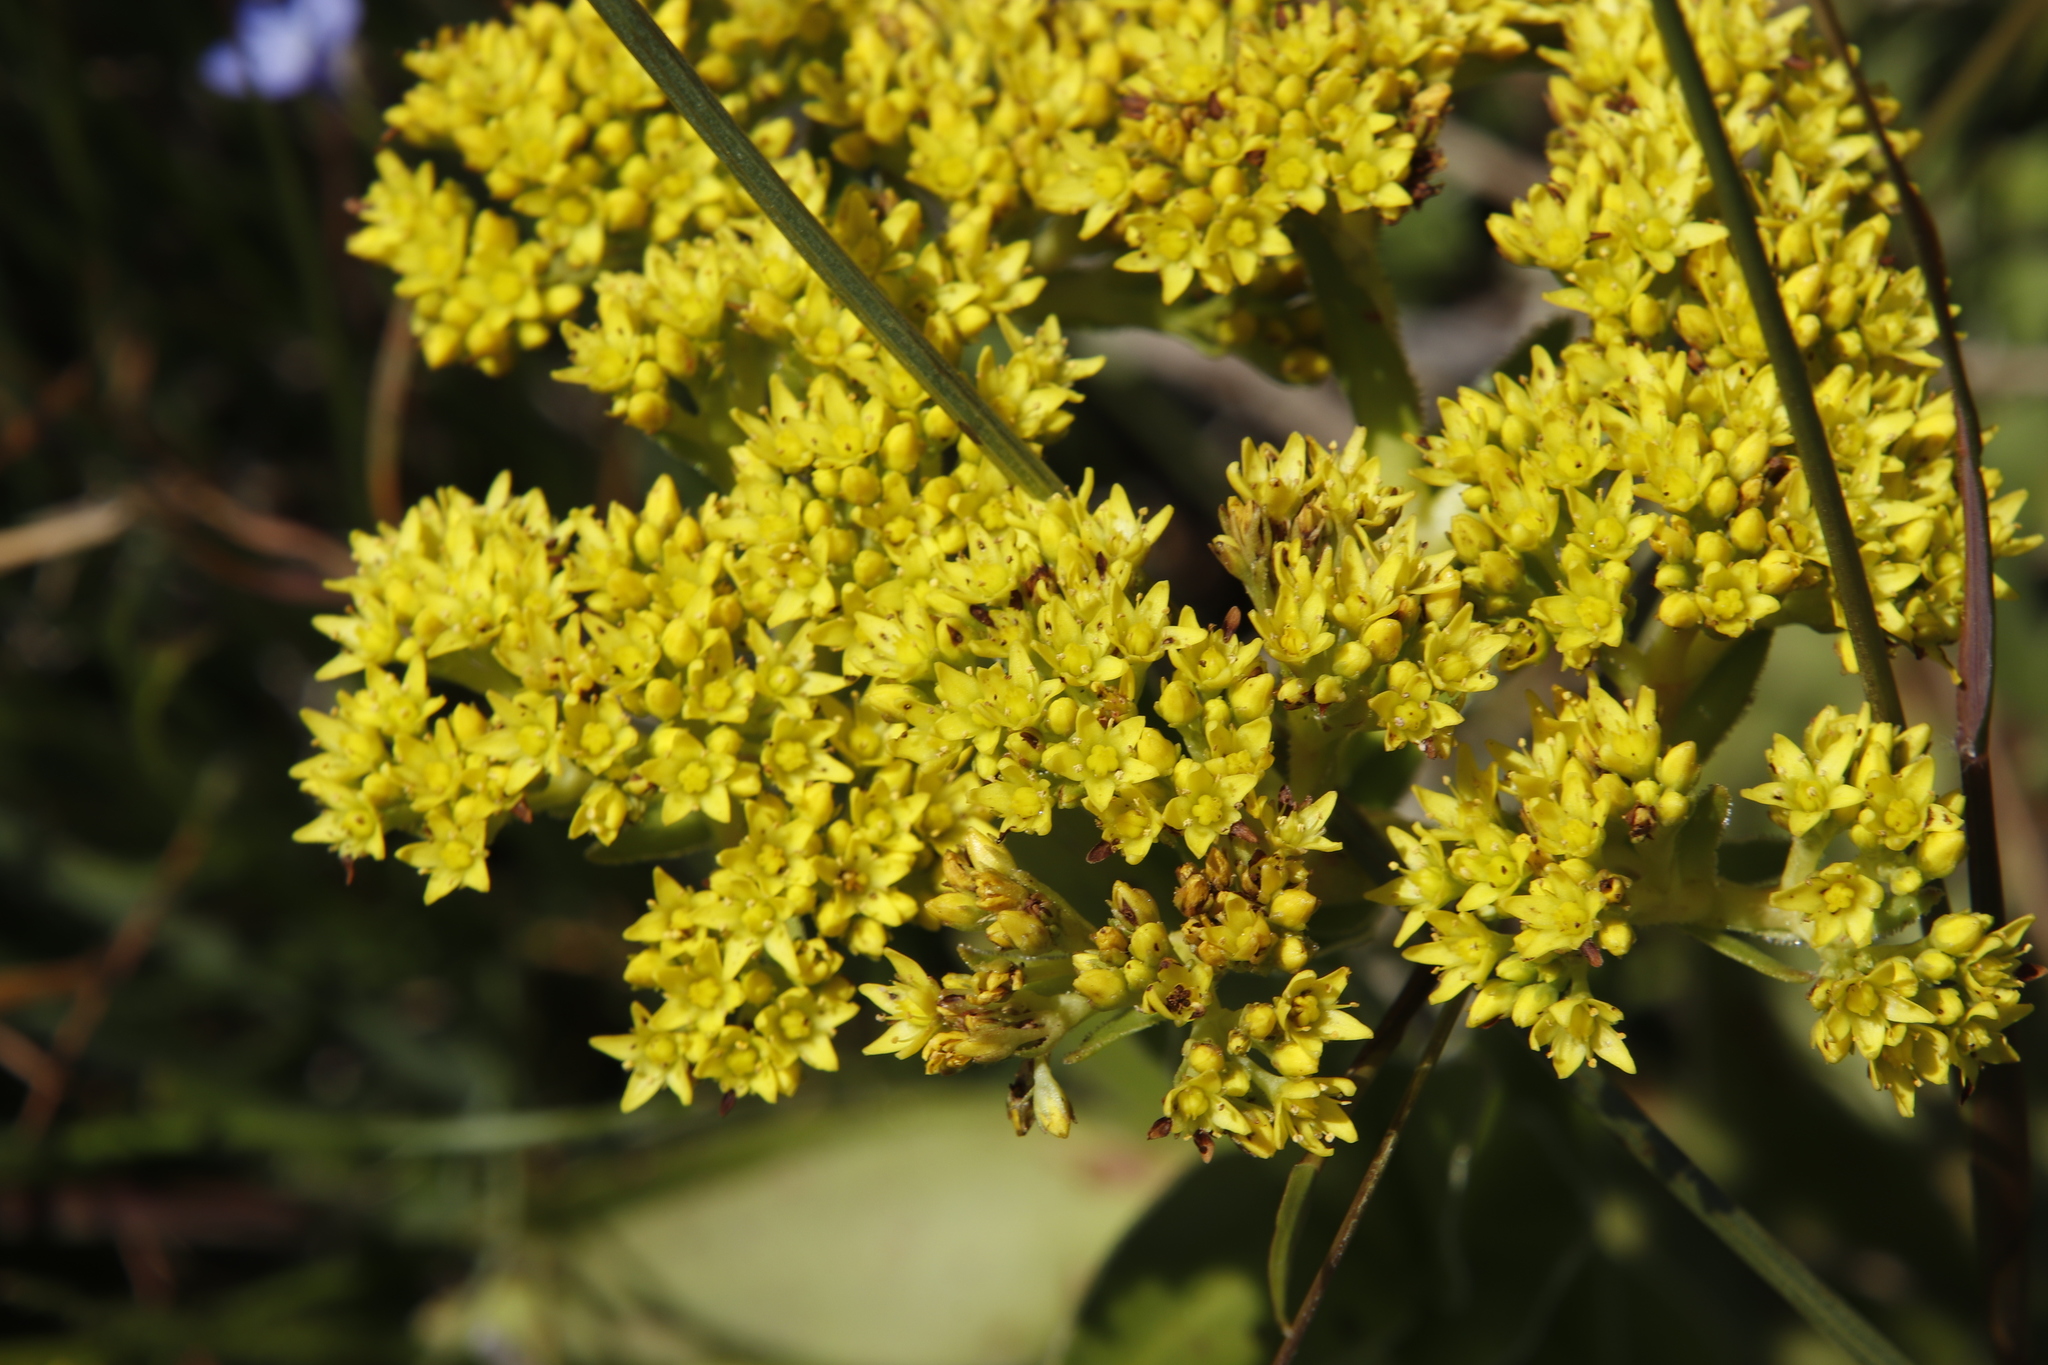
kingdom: Plantae
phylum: Tracheophyta
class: Magnoliopsida
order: Saxifragales
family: Crassulaceae
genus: Crassula
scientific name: Crassula vaginata
